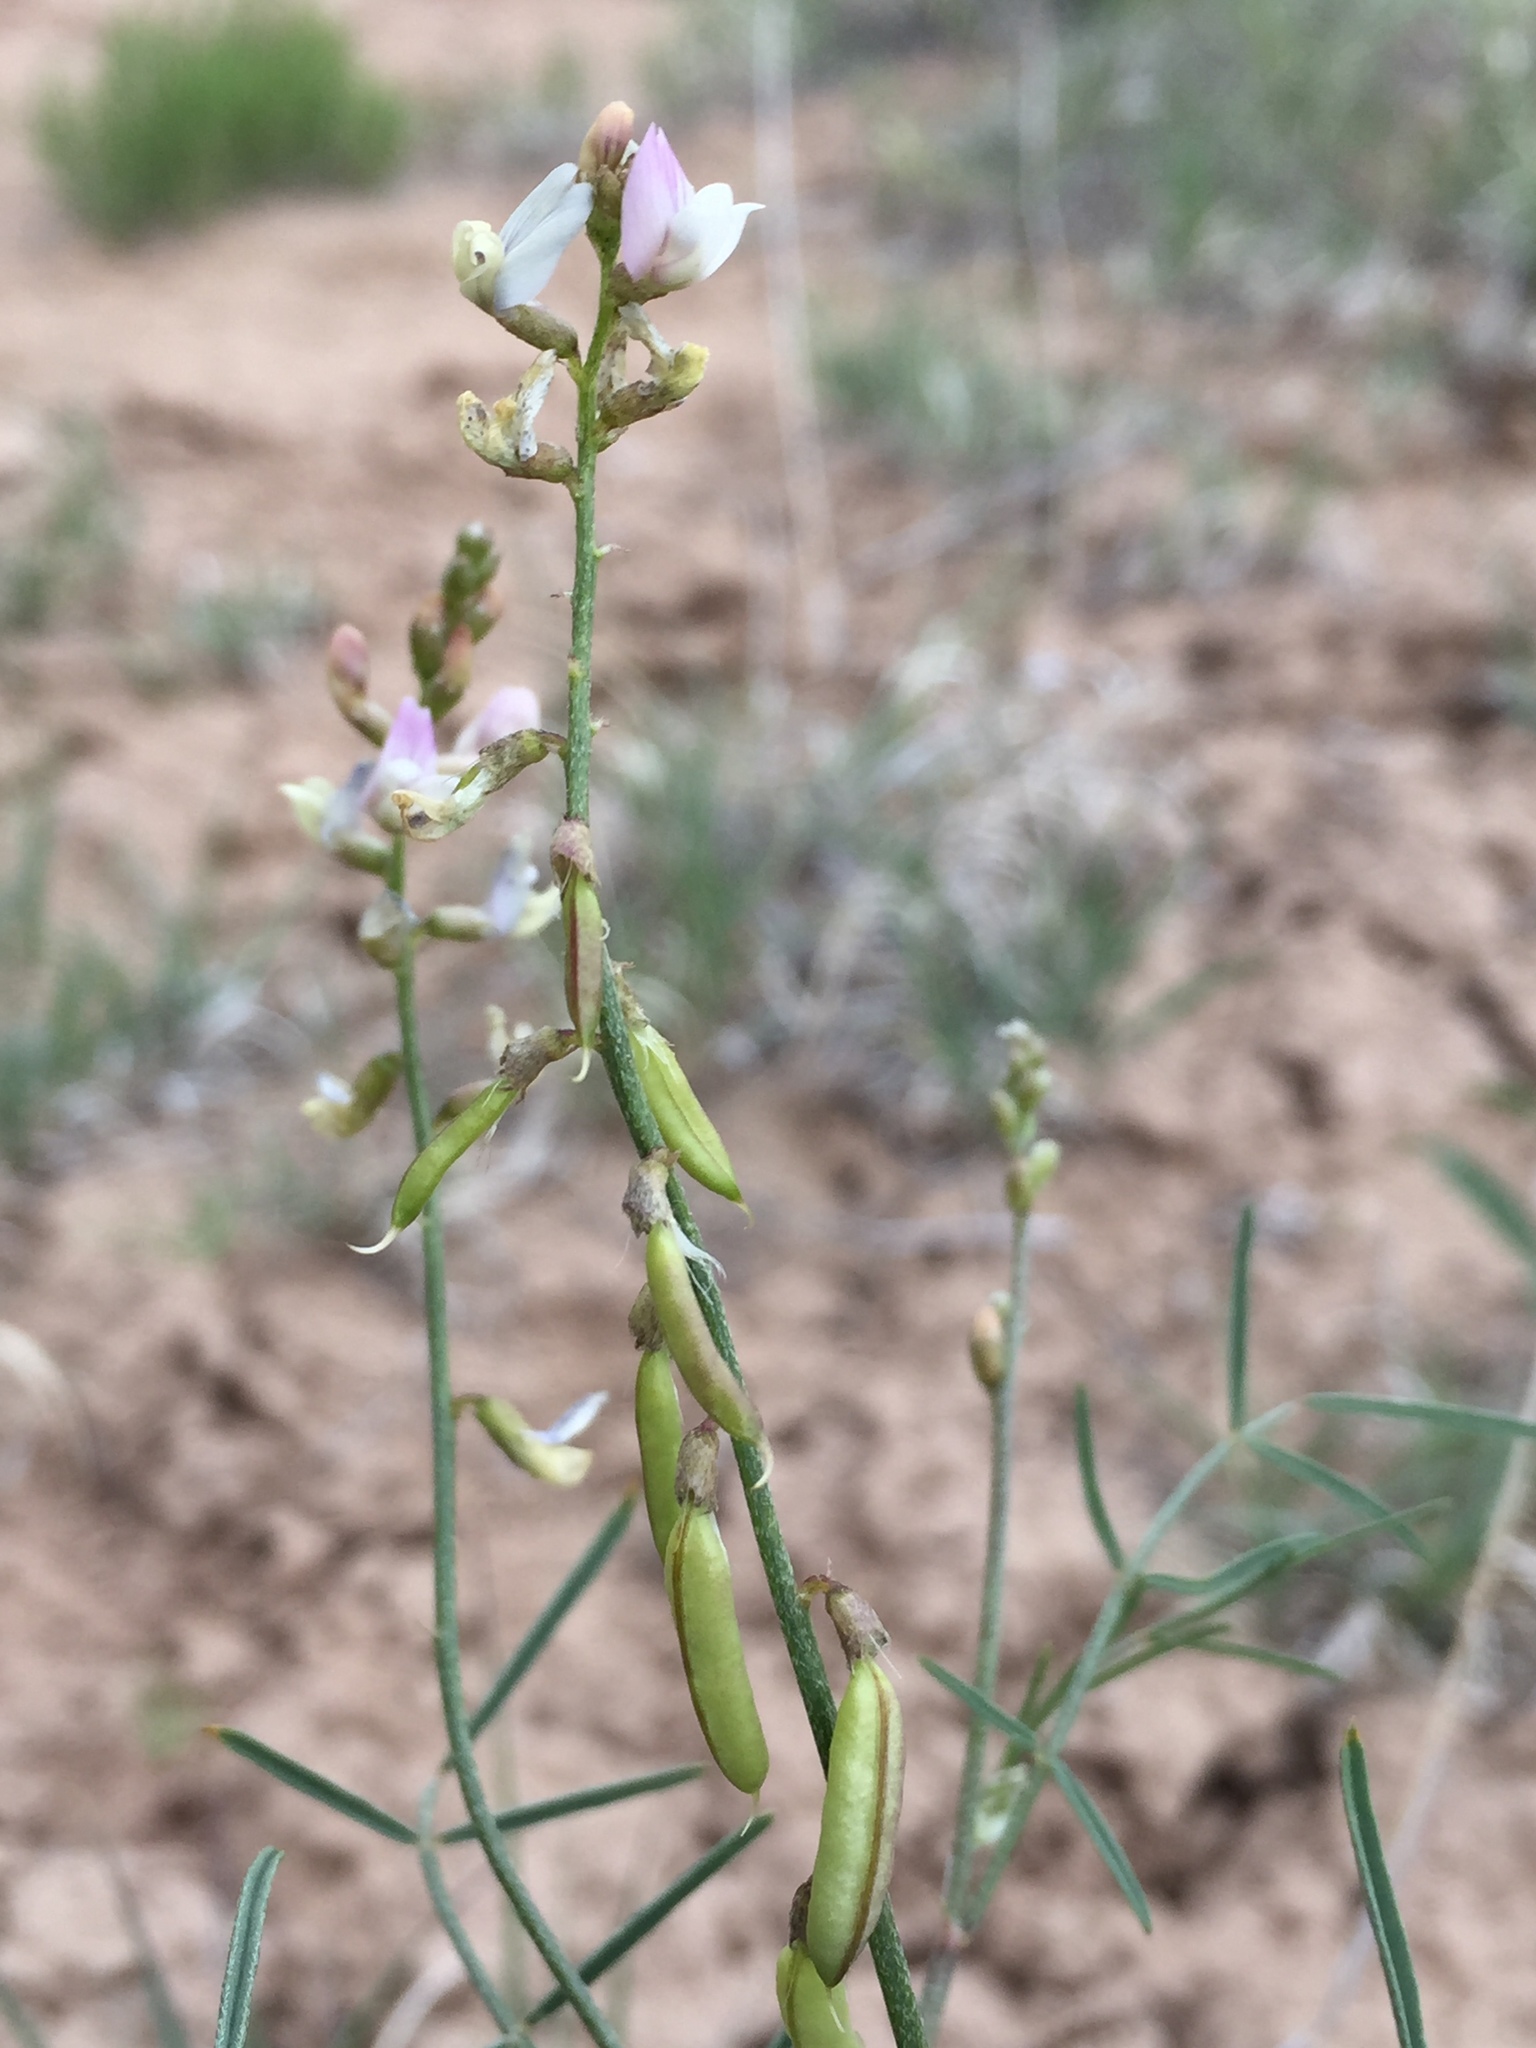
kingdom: Plantae
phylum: Tracheophyta
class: Magnoliopsida
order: Fabales
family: Fabaceae
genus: Astragalus
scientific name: Astragalus proximus
